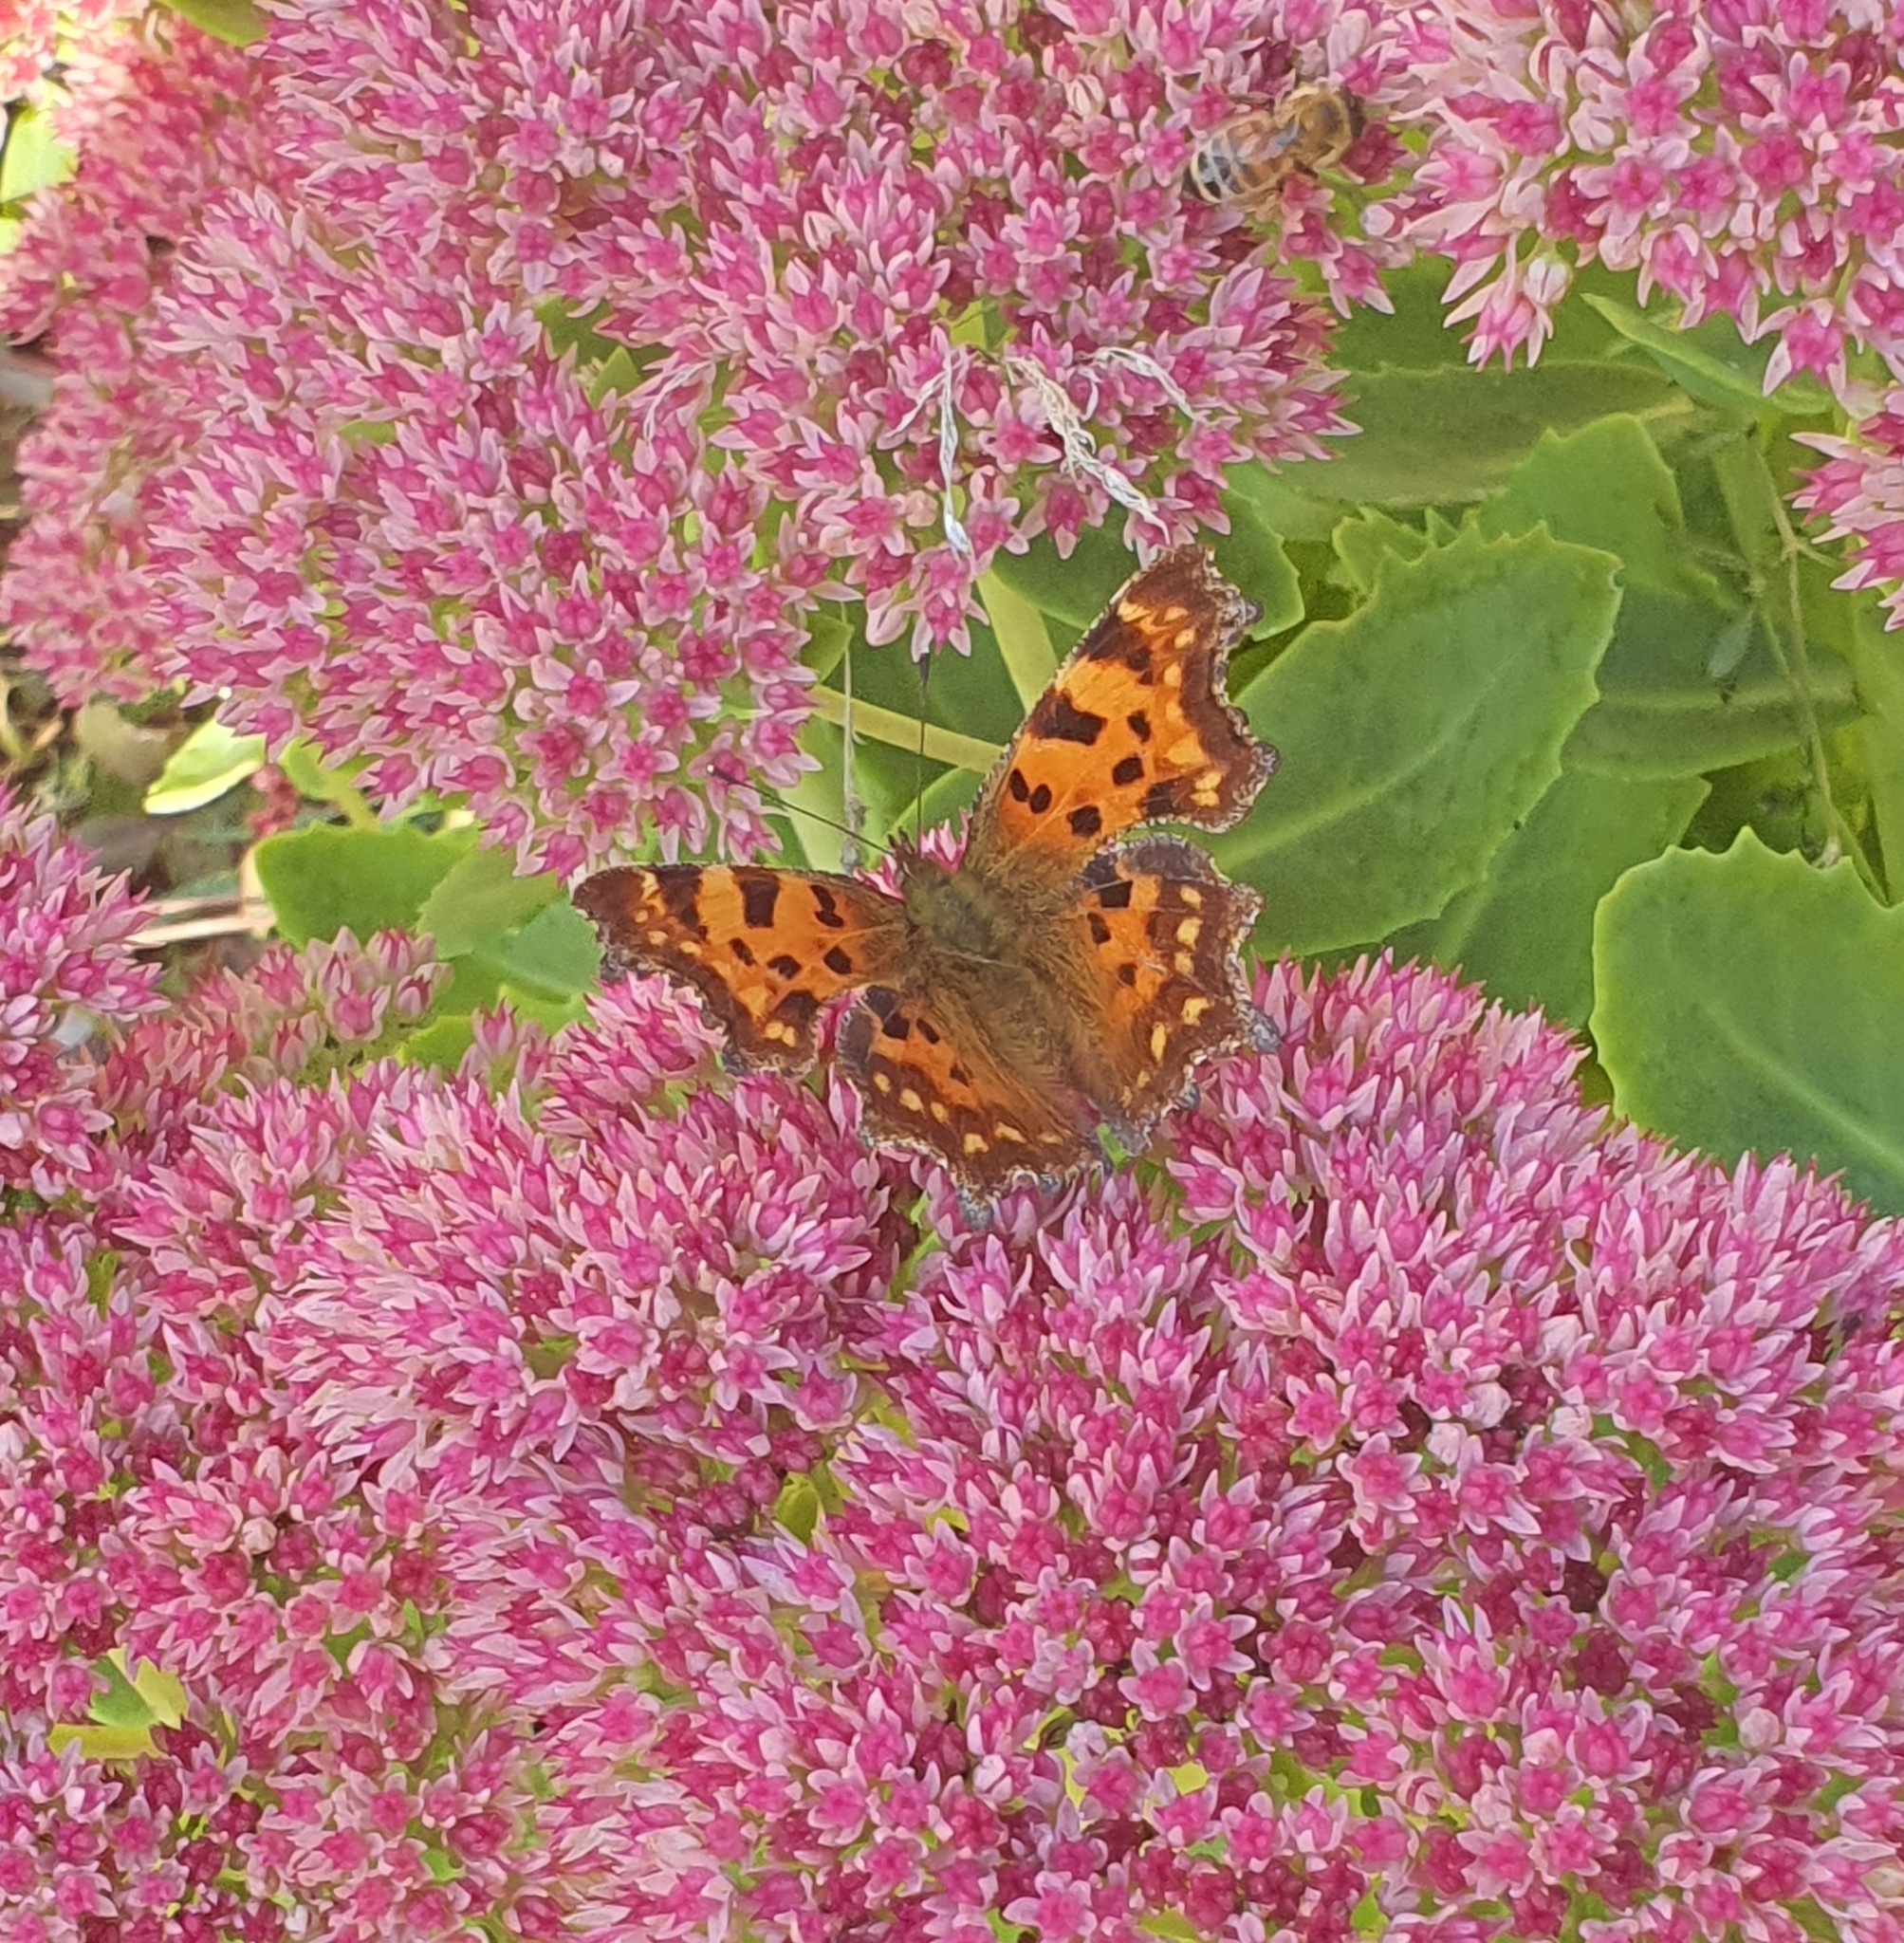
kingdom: Animalia
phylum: Arthropoda
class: Insecta
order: Lepidoptera
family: Nymphalidae
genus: Polygonia
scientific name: Polygonia c-album
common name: Comma
